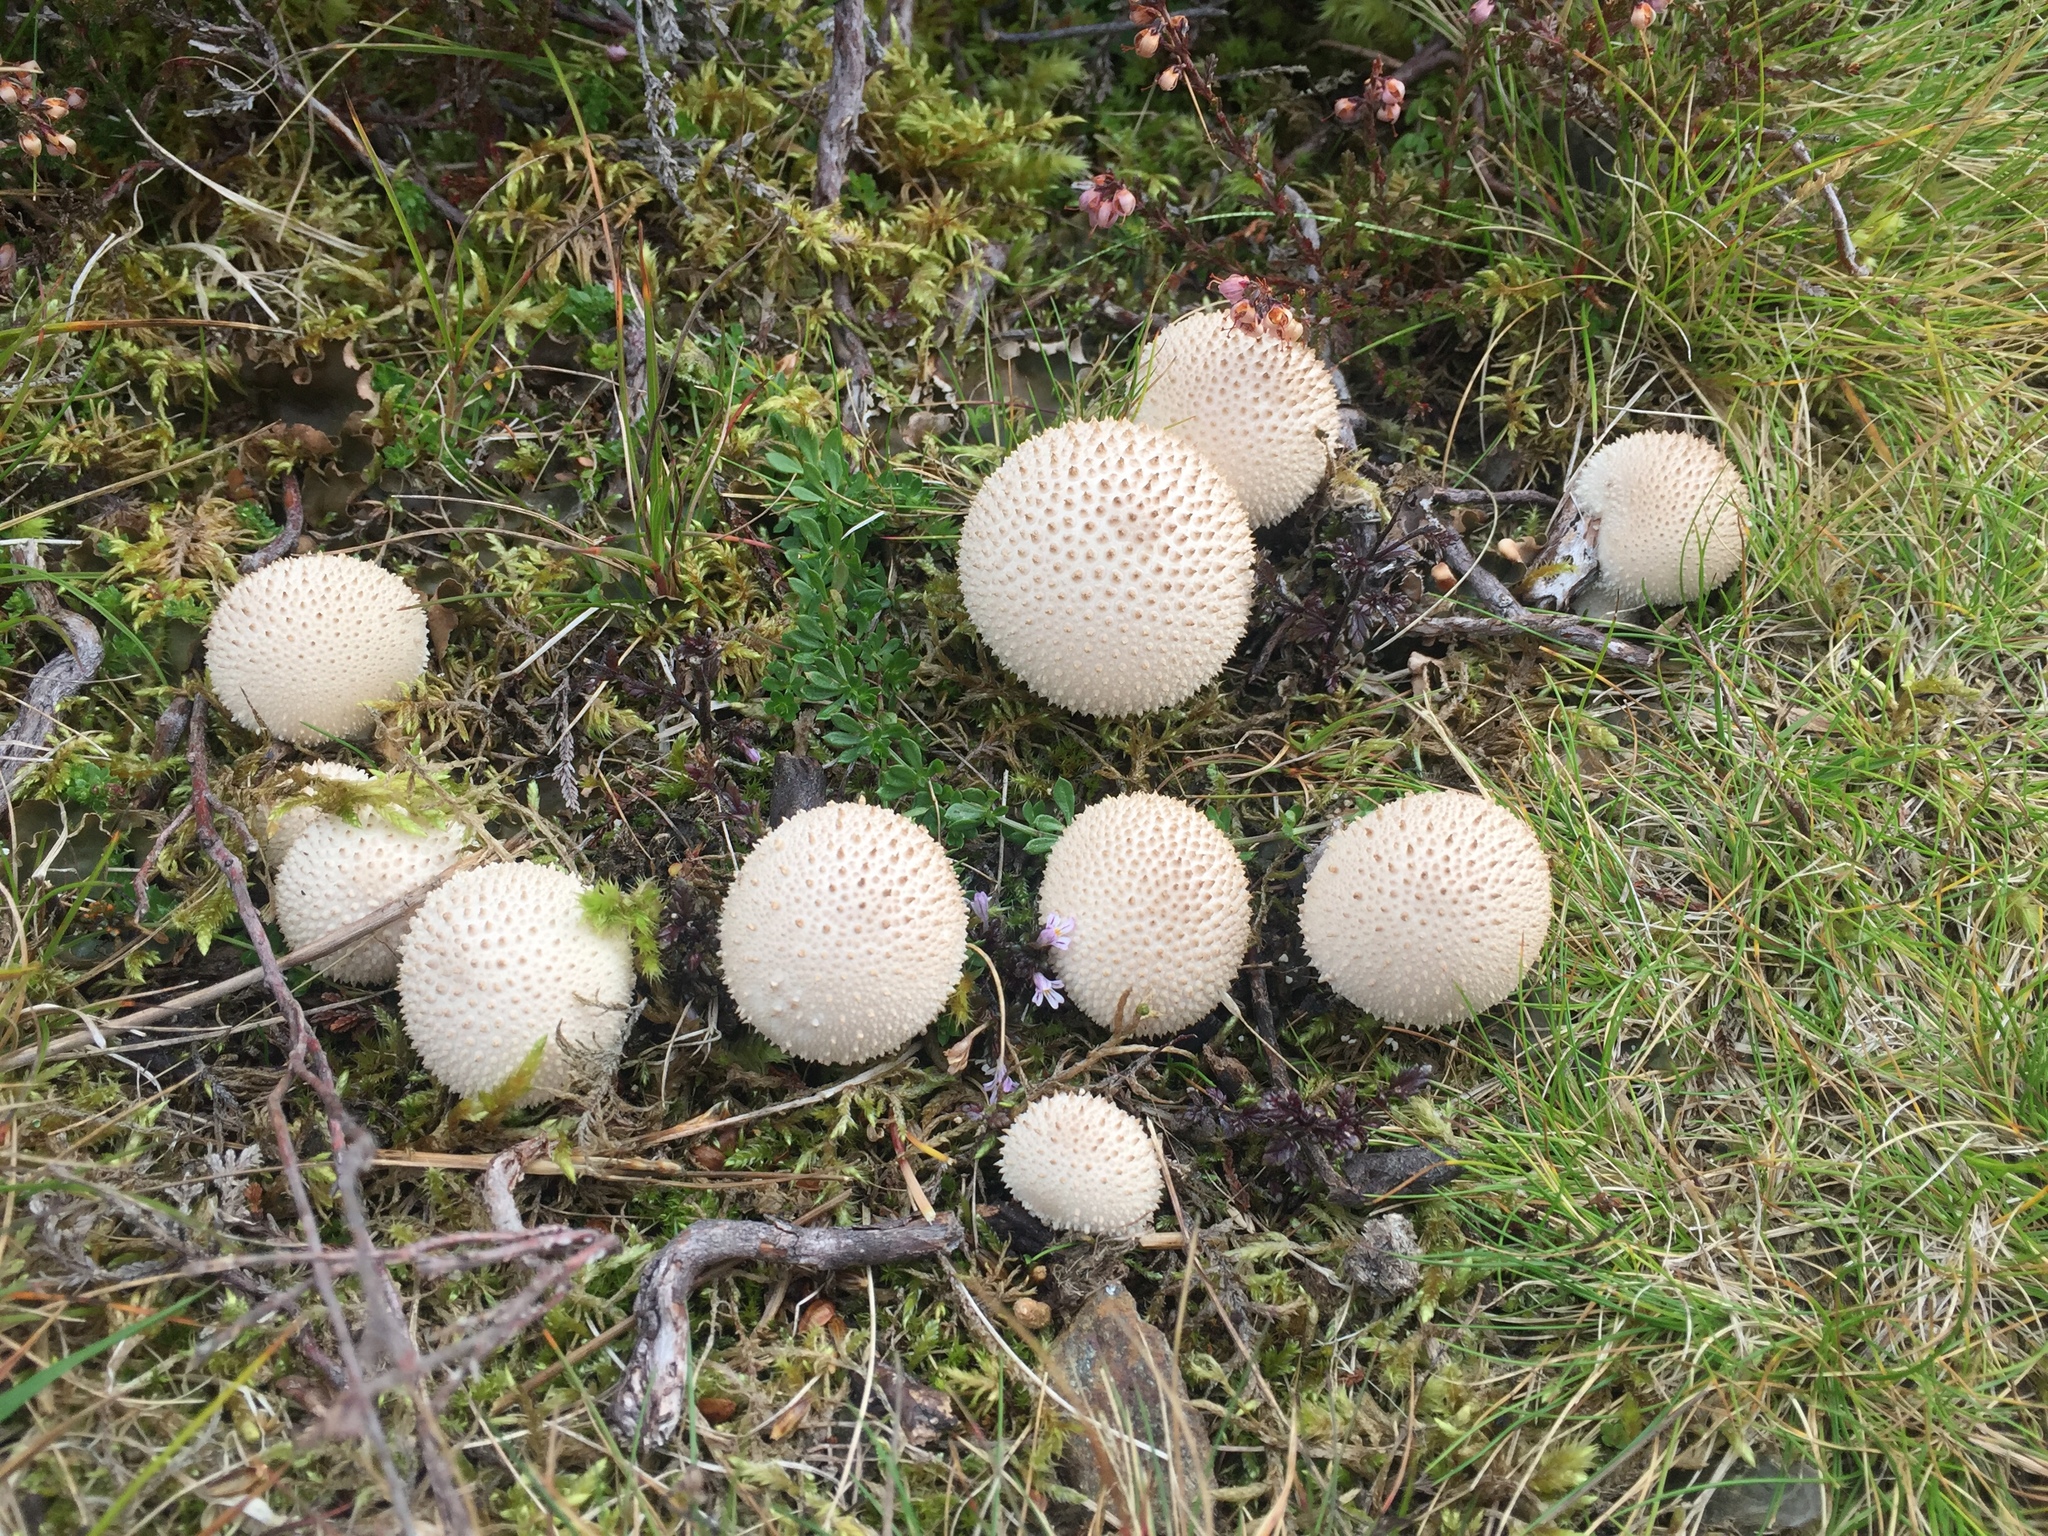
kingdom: Fungi
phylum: Basidiomycota
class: Agaricomycetes
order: Agaricales
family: Lycoperdaceae
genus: Lycoperdon
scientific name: Lycoperdon perlatum
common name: Common puffball
